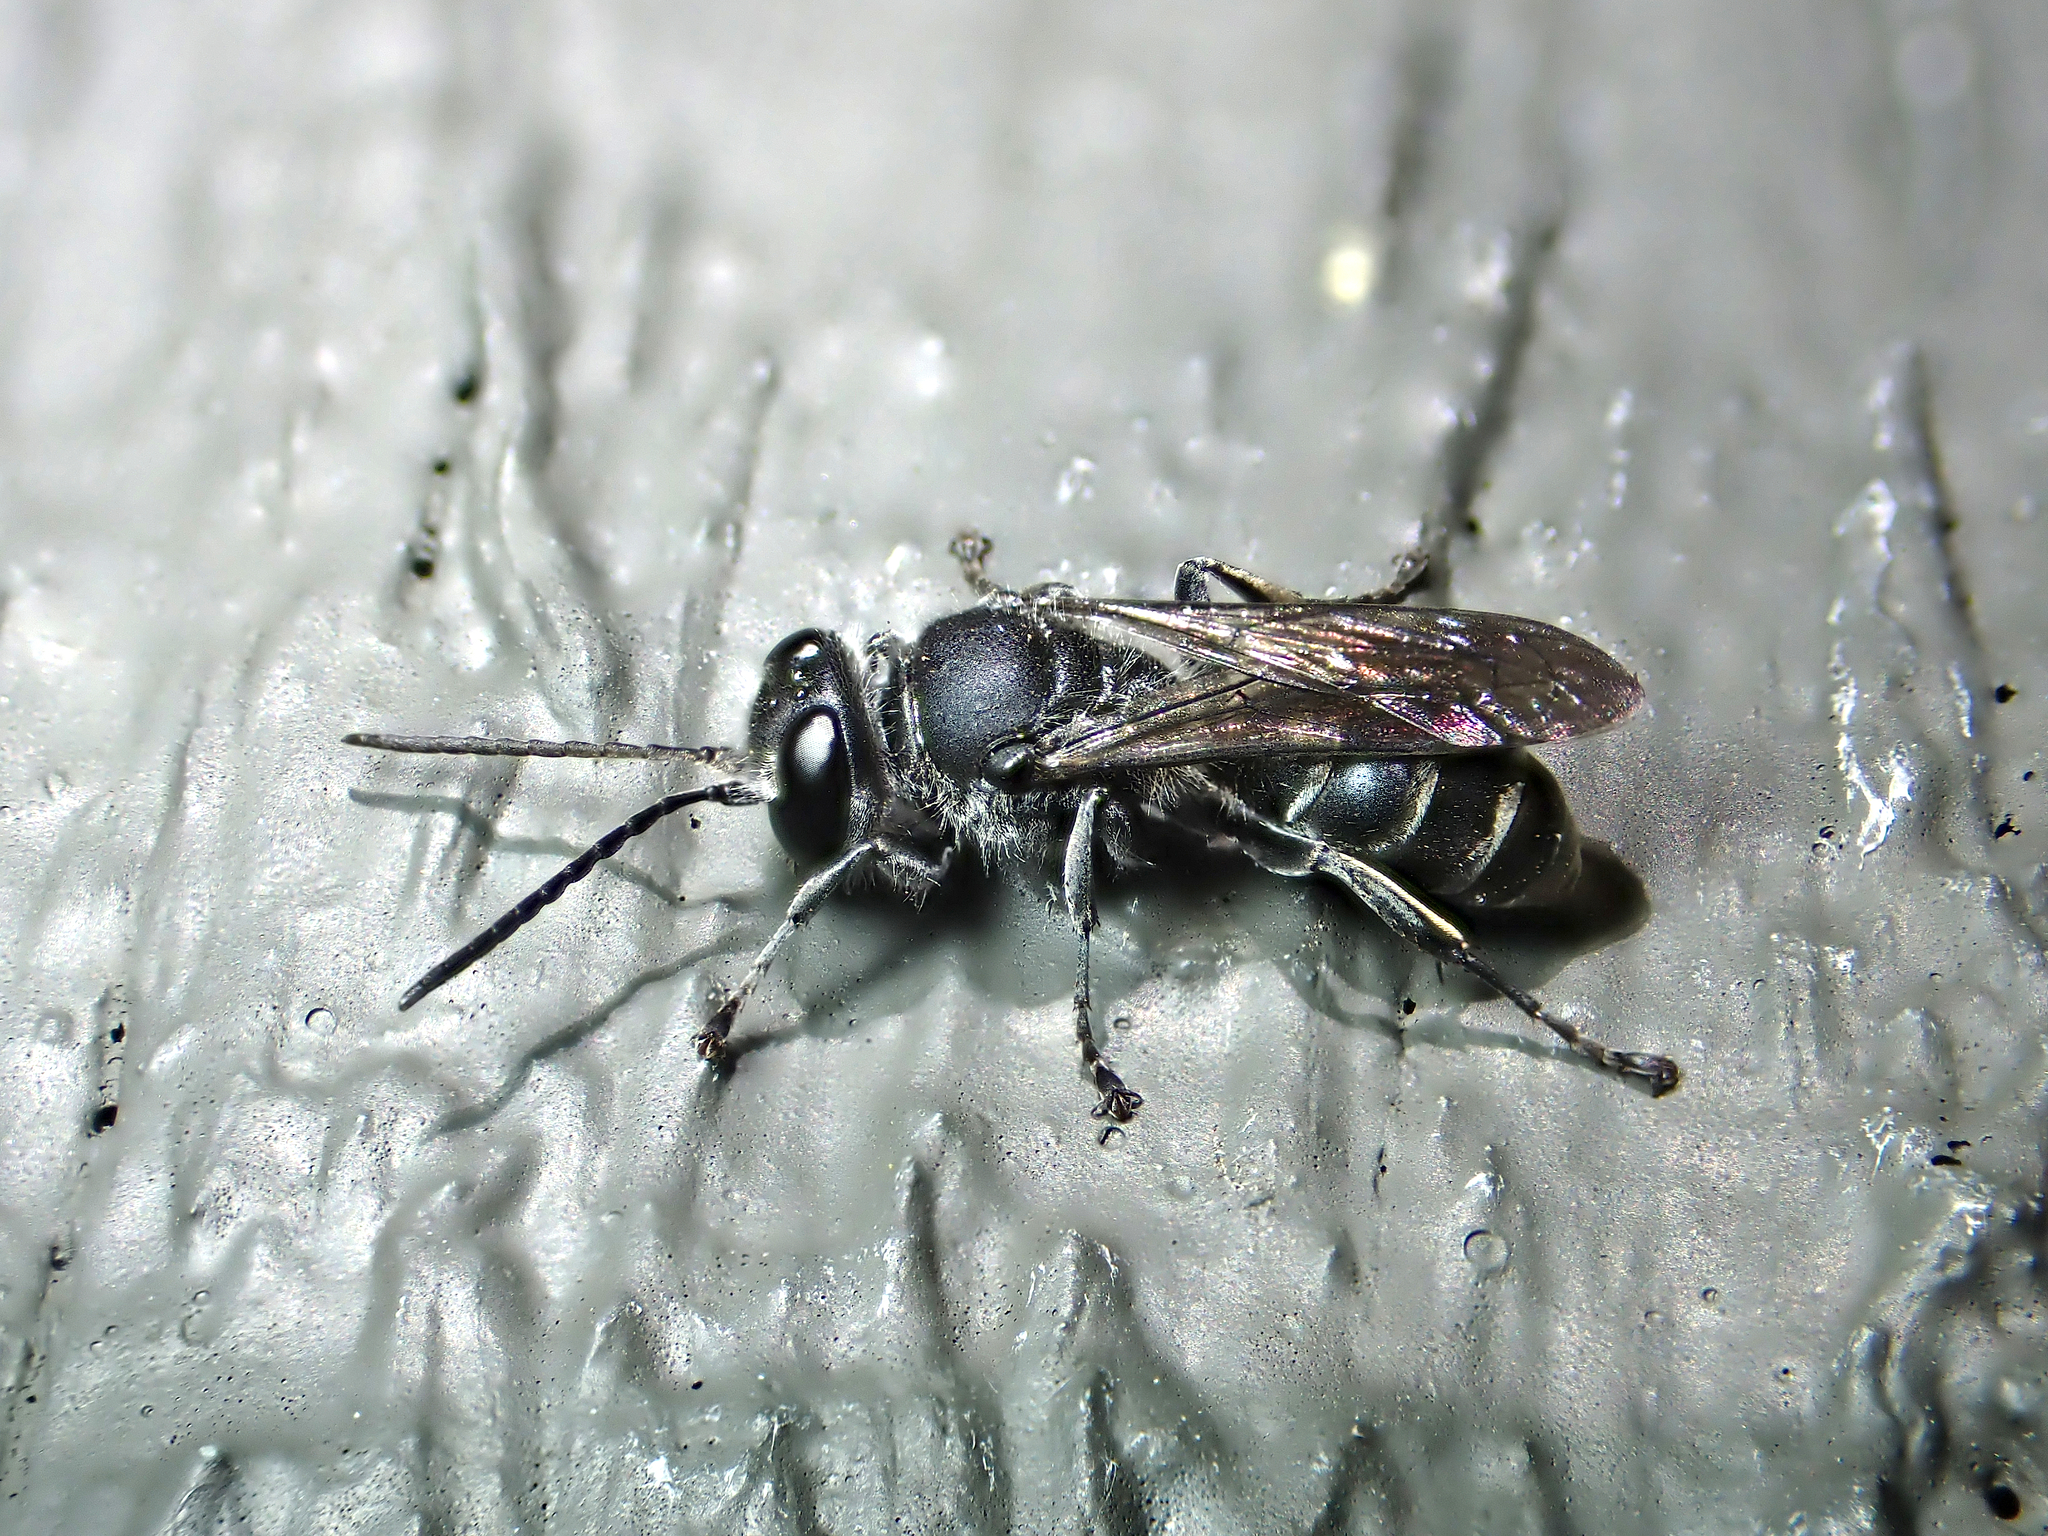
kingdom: Animalia
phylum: Arthropoda
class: Insecta
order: Hymenoptera
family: Crabronidae
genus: Pison
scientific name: Pison spinolae
